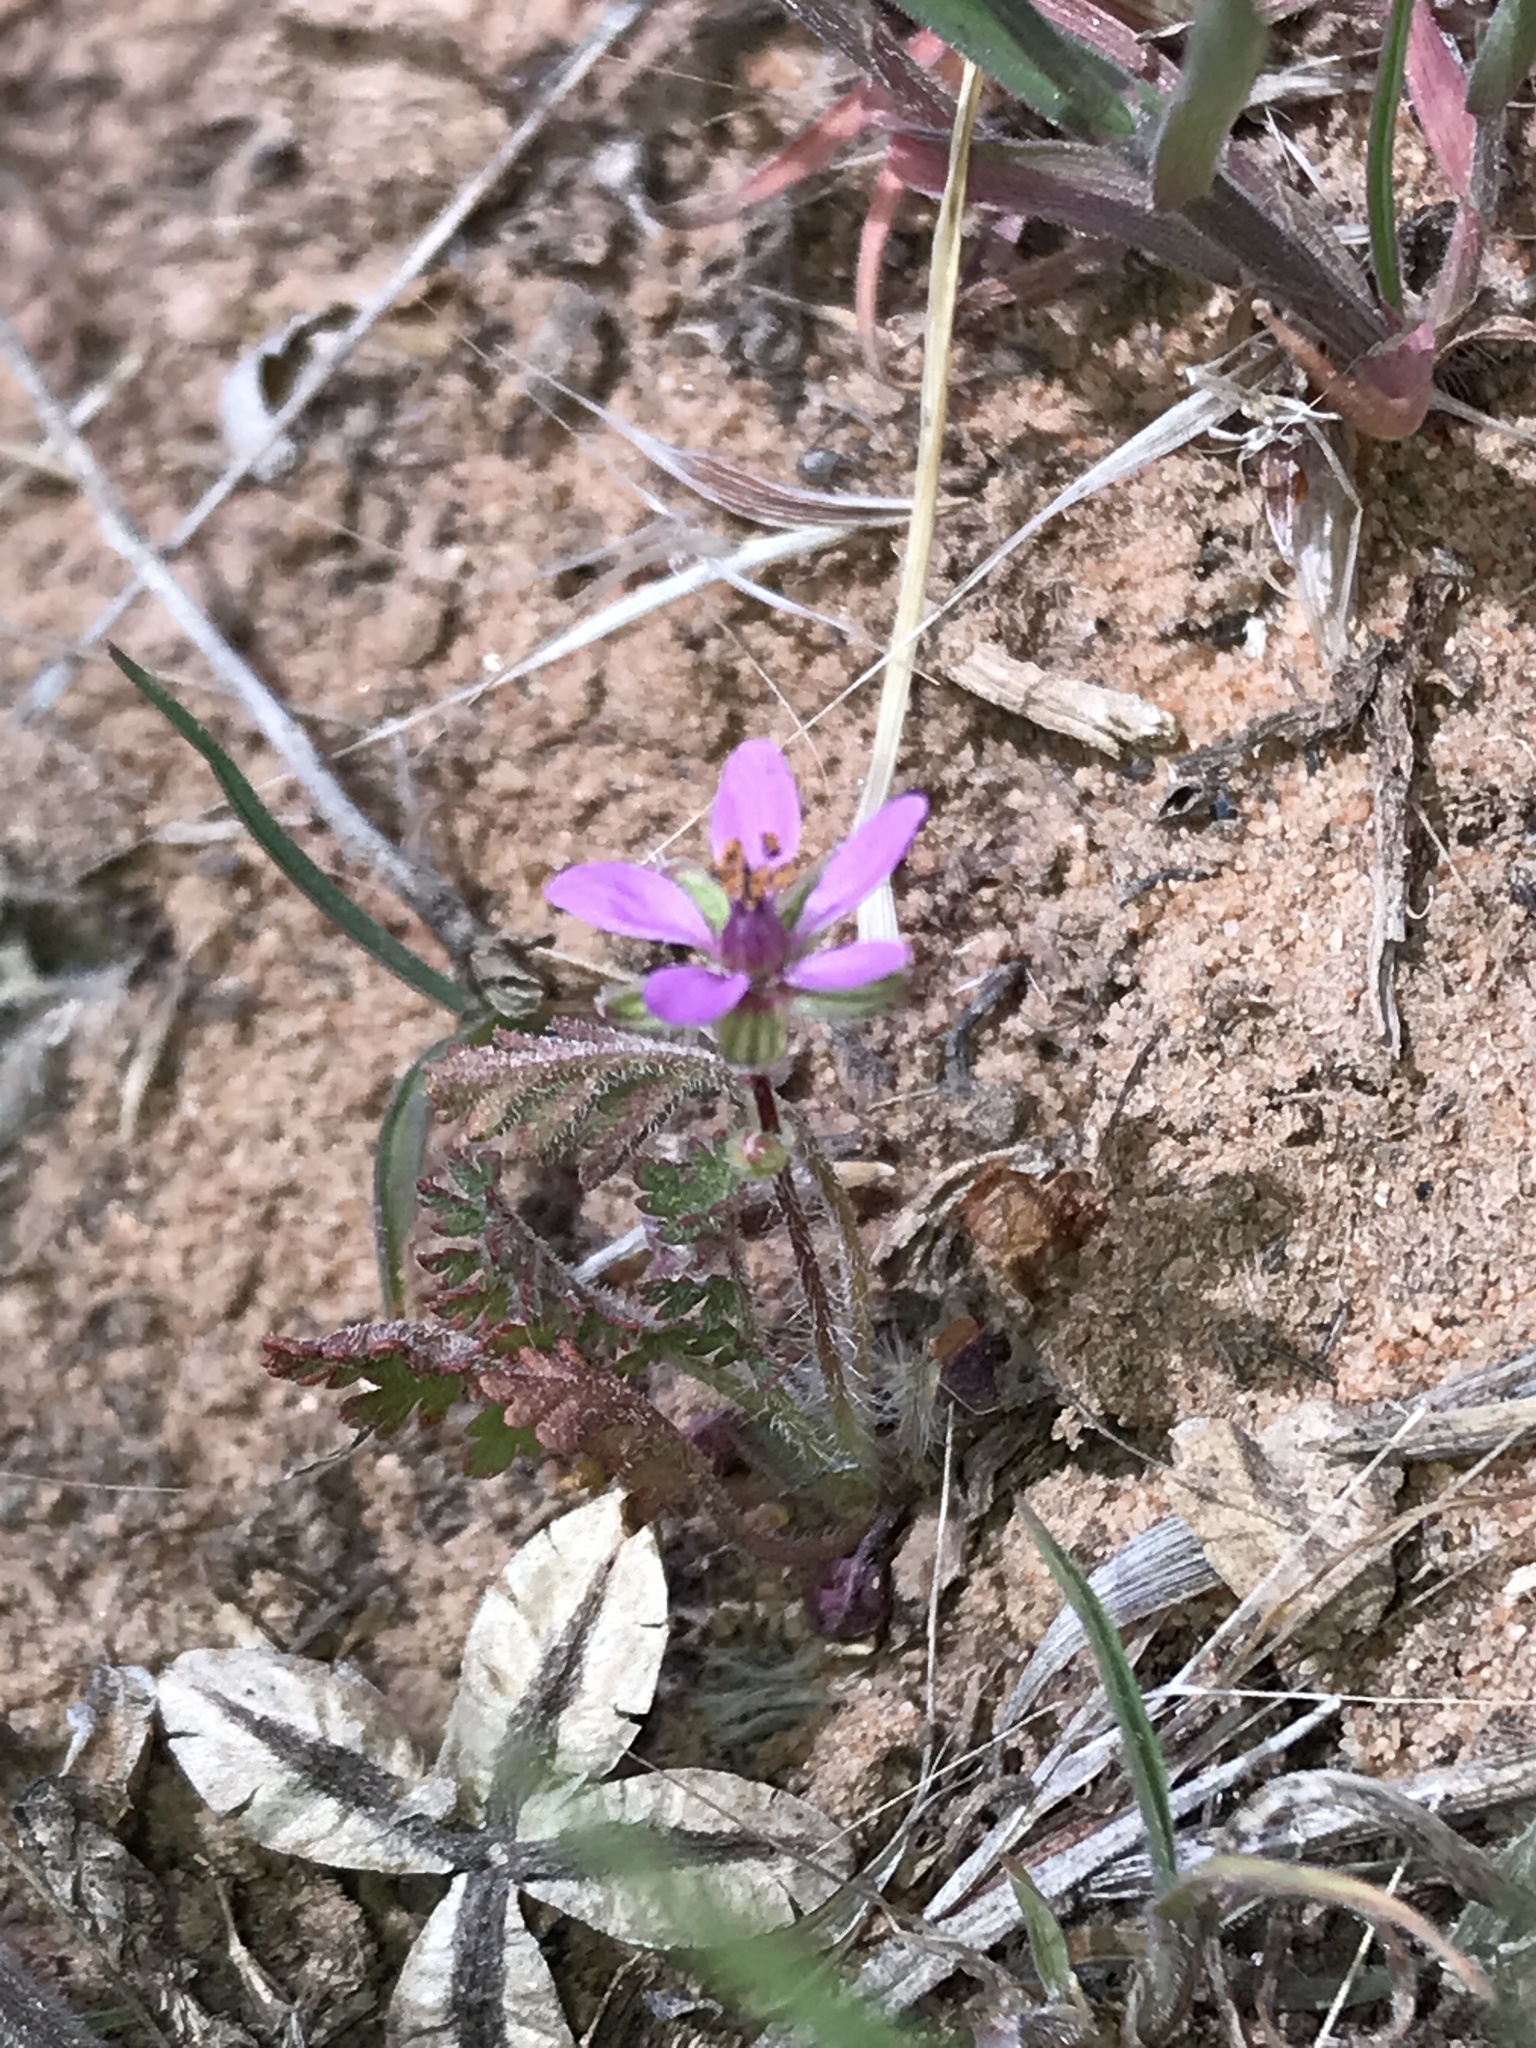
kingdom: Plantae
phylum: Tracheophyta
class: Magnoliopsida
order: Geraniales
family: Geraniaceae
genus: Erodium
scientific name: Erodium cicutarium
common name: Common stork's-bill
